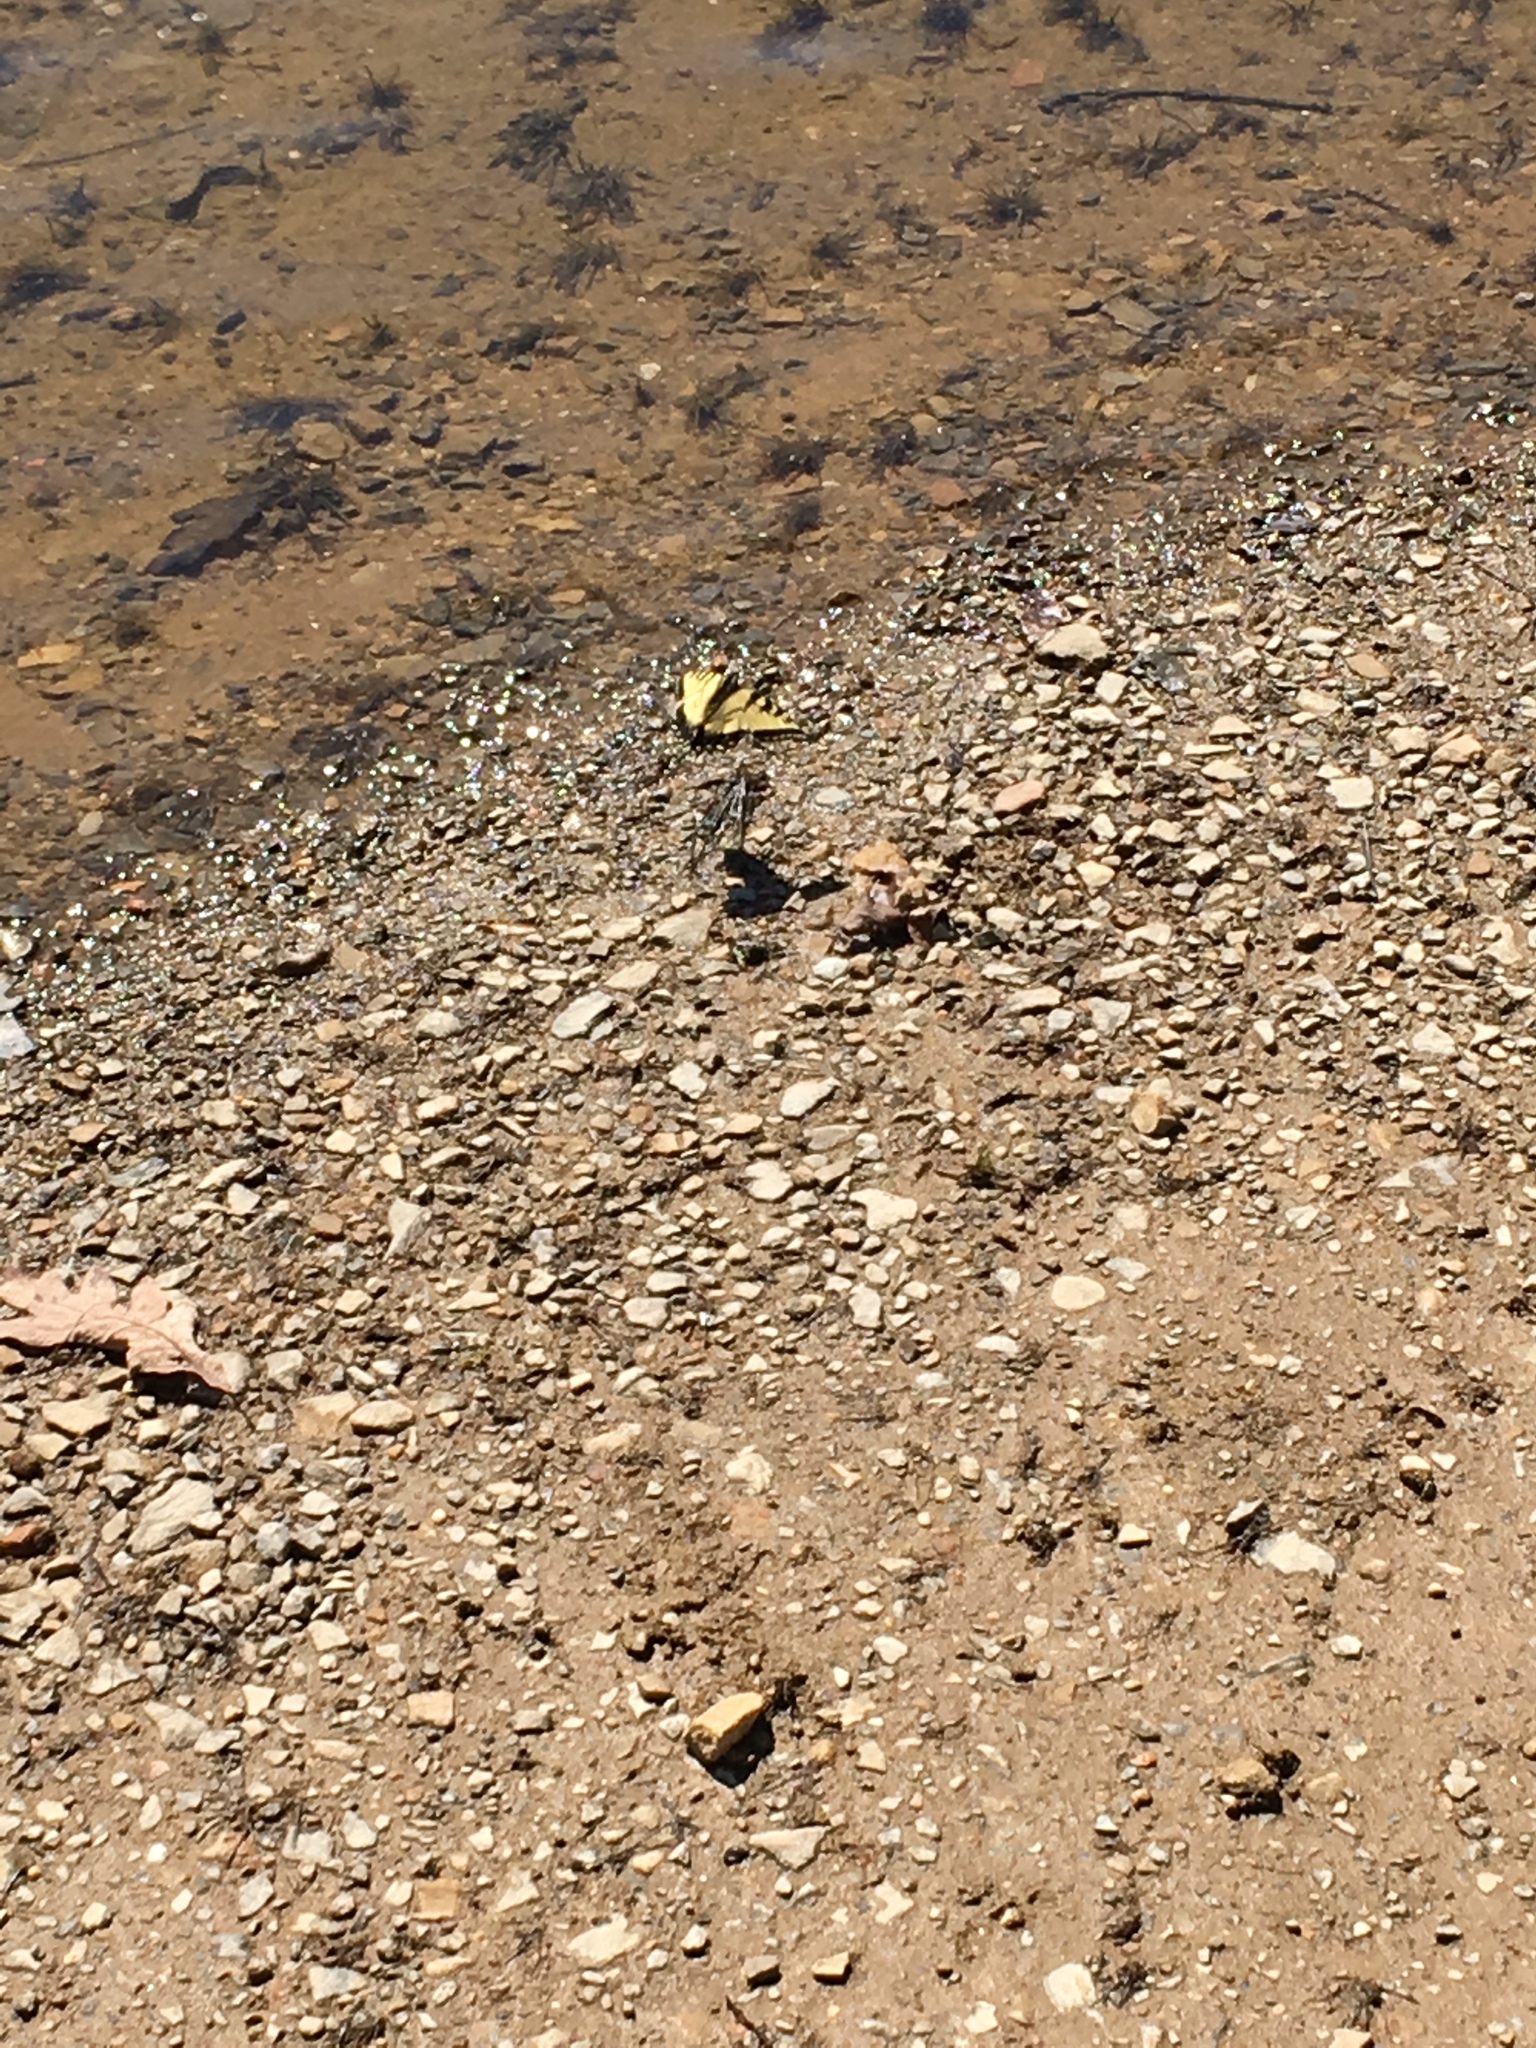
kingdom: Animalia
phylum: Arthropoda
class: Insecta
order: Lepidoptera
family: Papilionidae
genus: Papilio
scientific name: Papilio glaucus
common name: Tiger swallowtail
